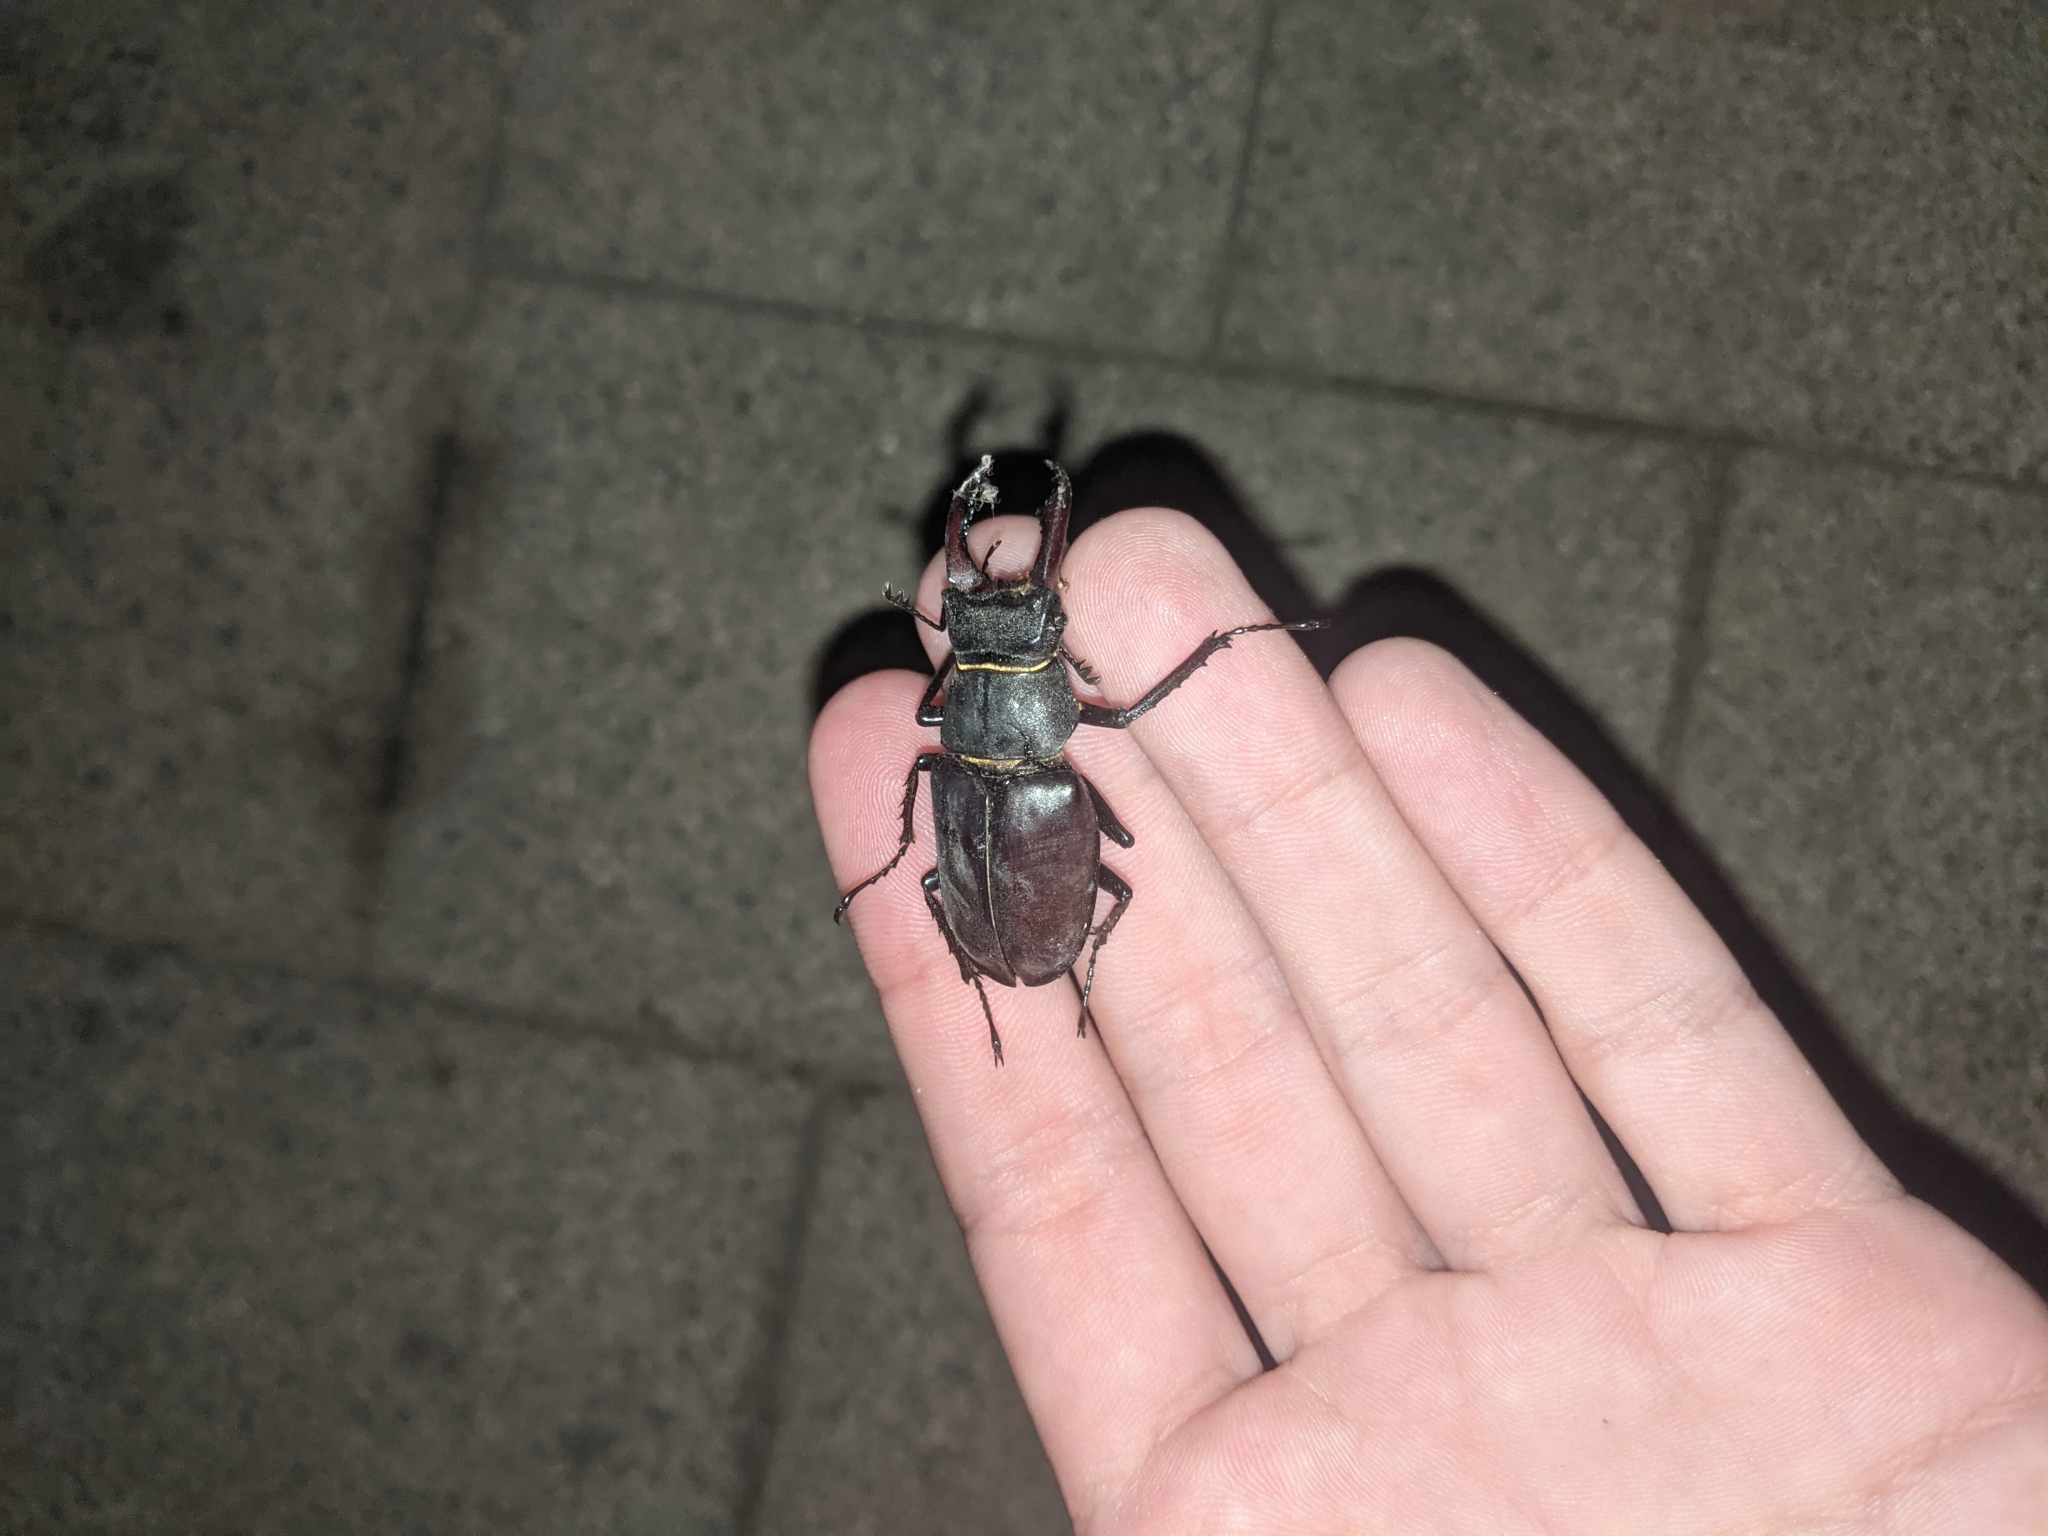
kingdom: Animalia
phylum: Arthropoda
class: Insecta
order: Coleoptera
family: Lucanidae
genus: Lucanus
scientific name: Lucanus cervus
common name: Stag beetle
